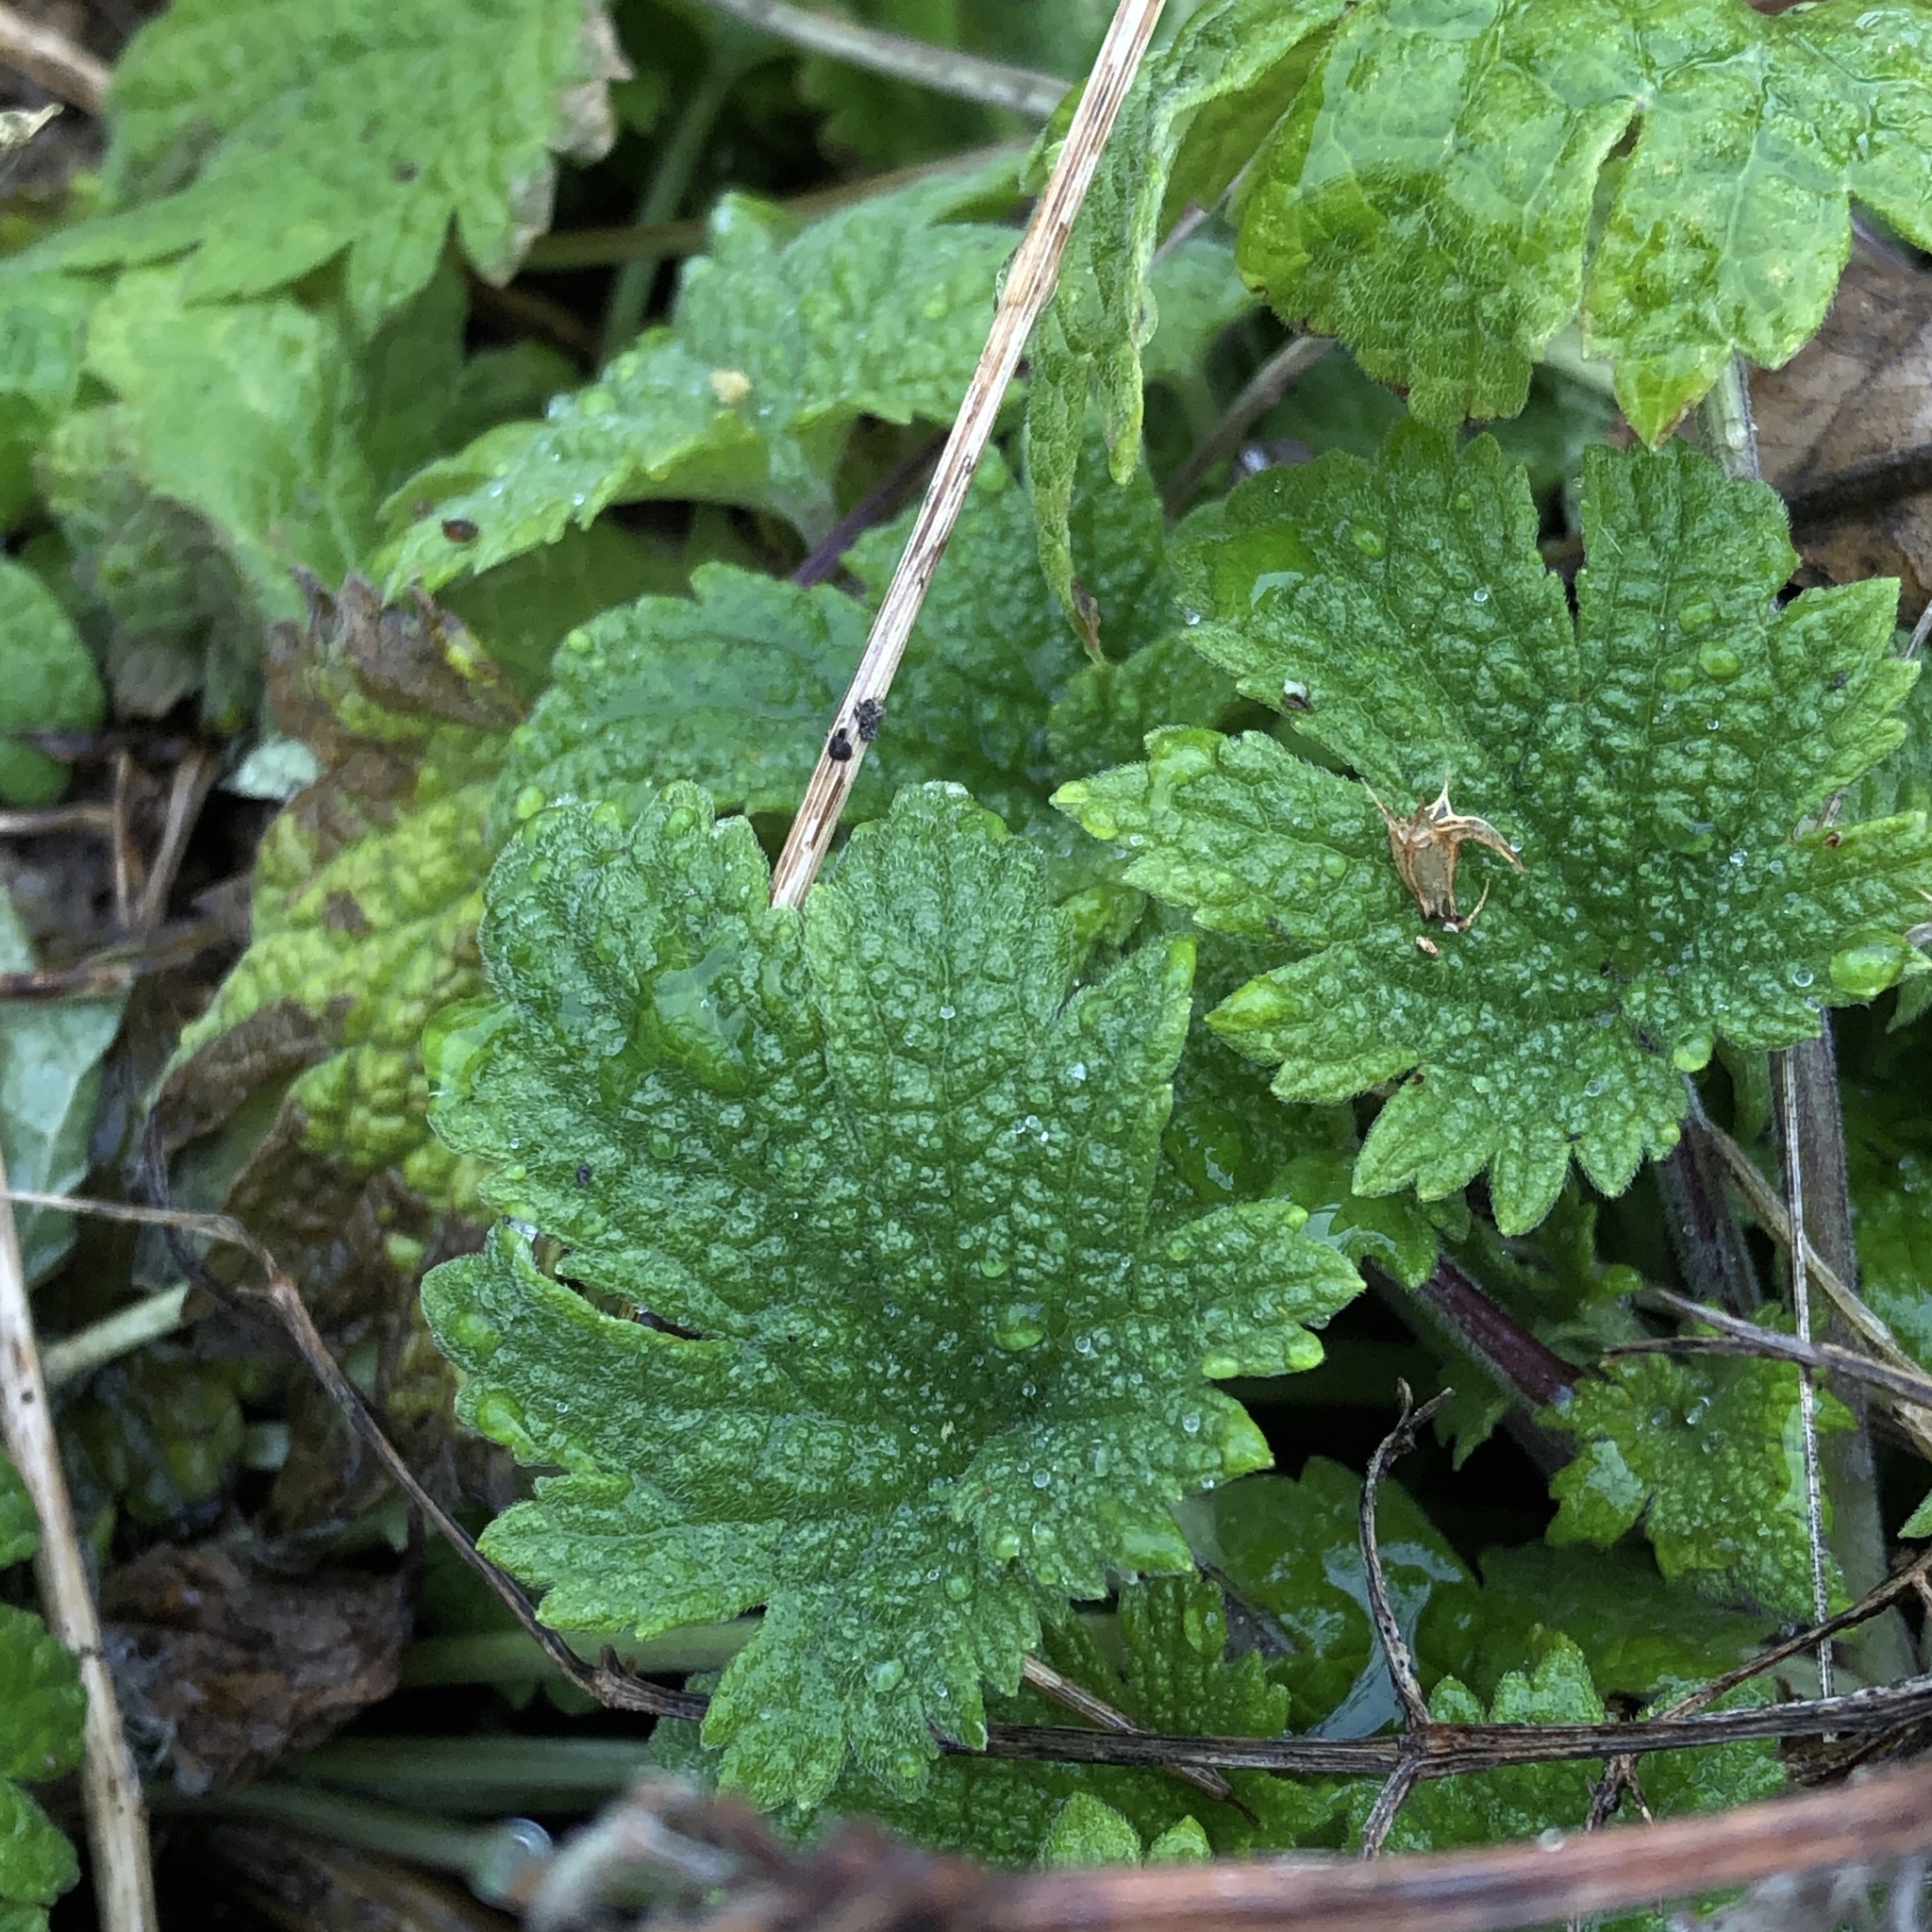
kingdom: Plantae
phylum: Tracheophyta
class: Magnoliopsida
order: Lamiales
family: Lamiaceae
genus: Leonurus
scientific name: Leonurus cardiaca
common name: Motherwort
